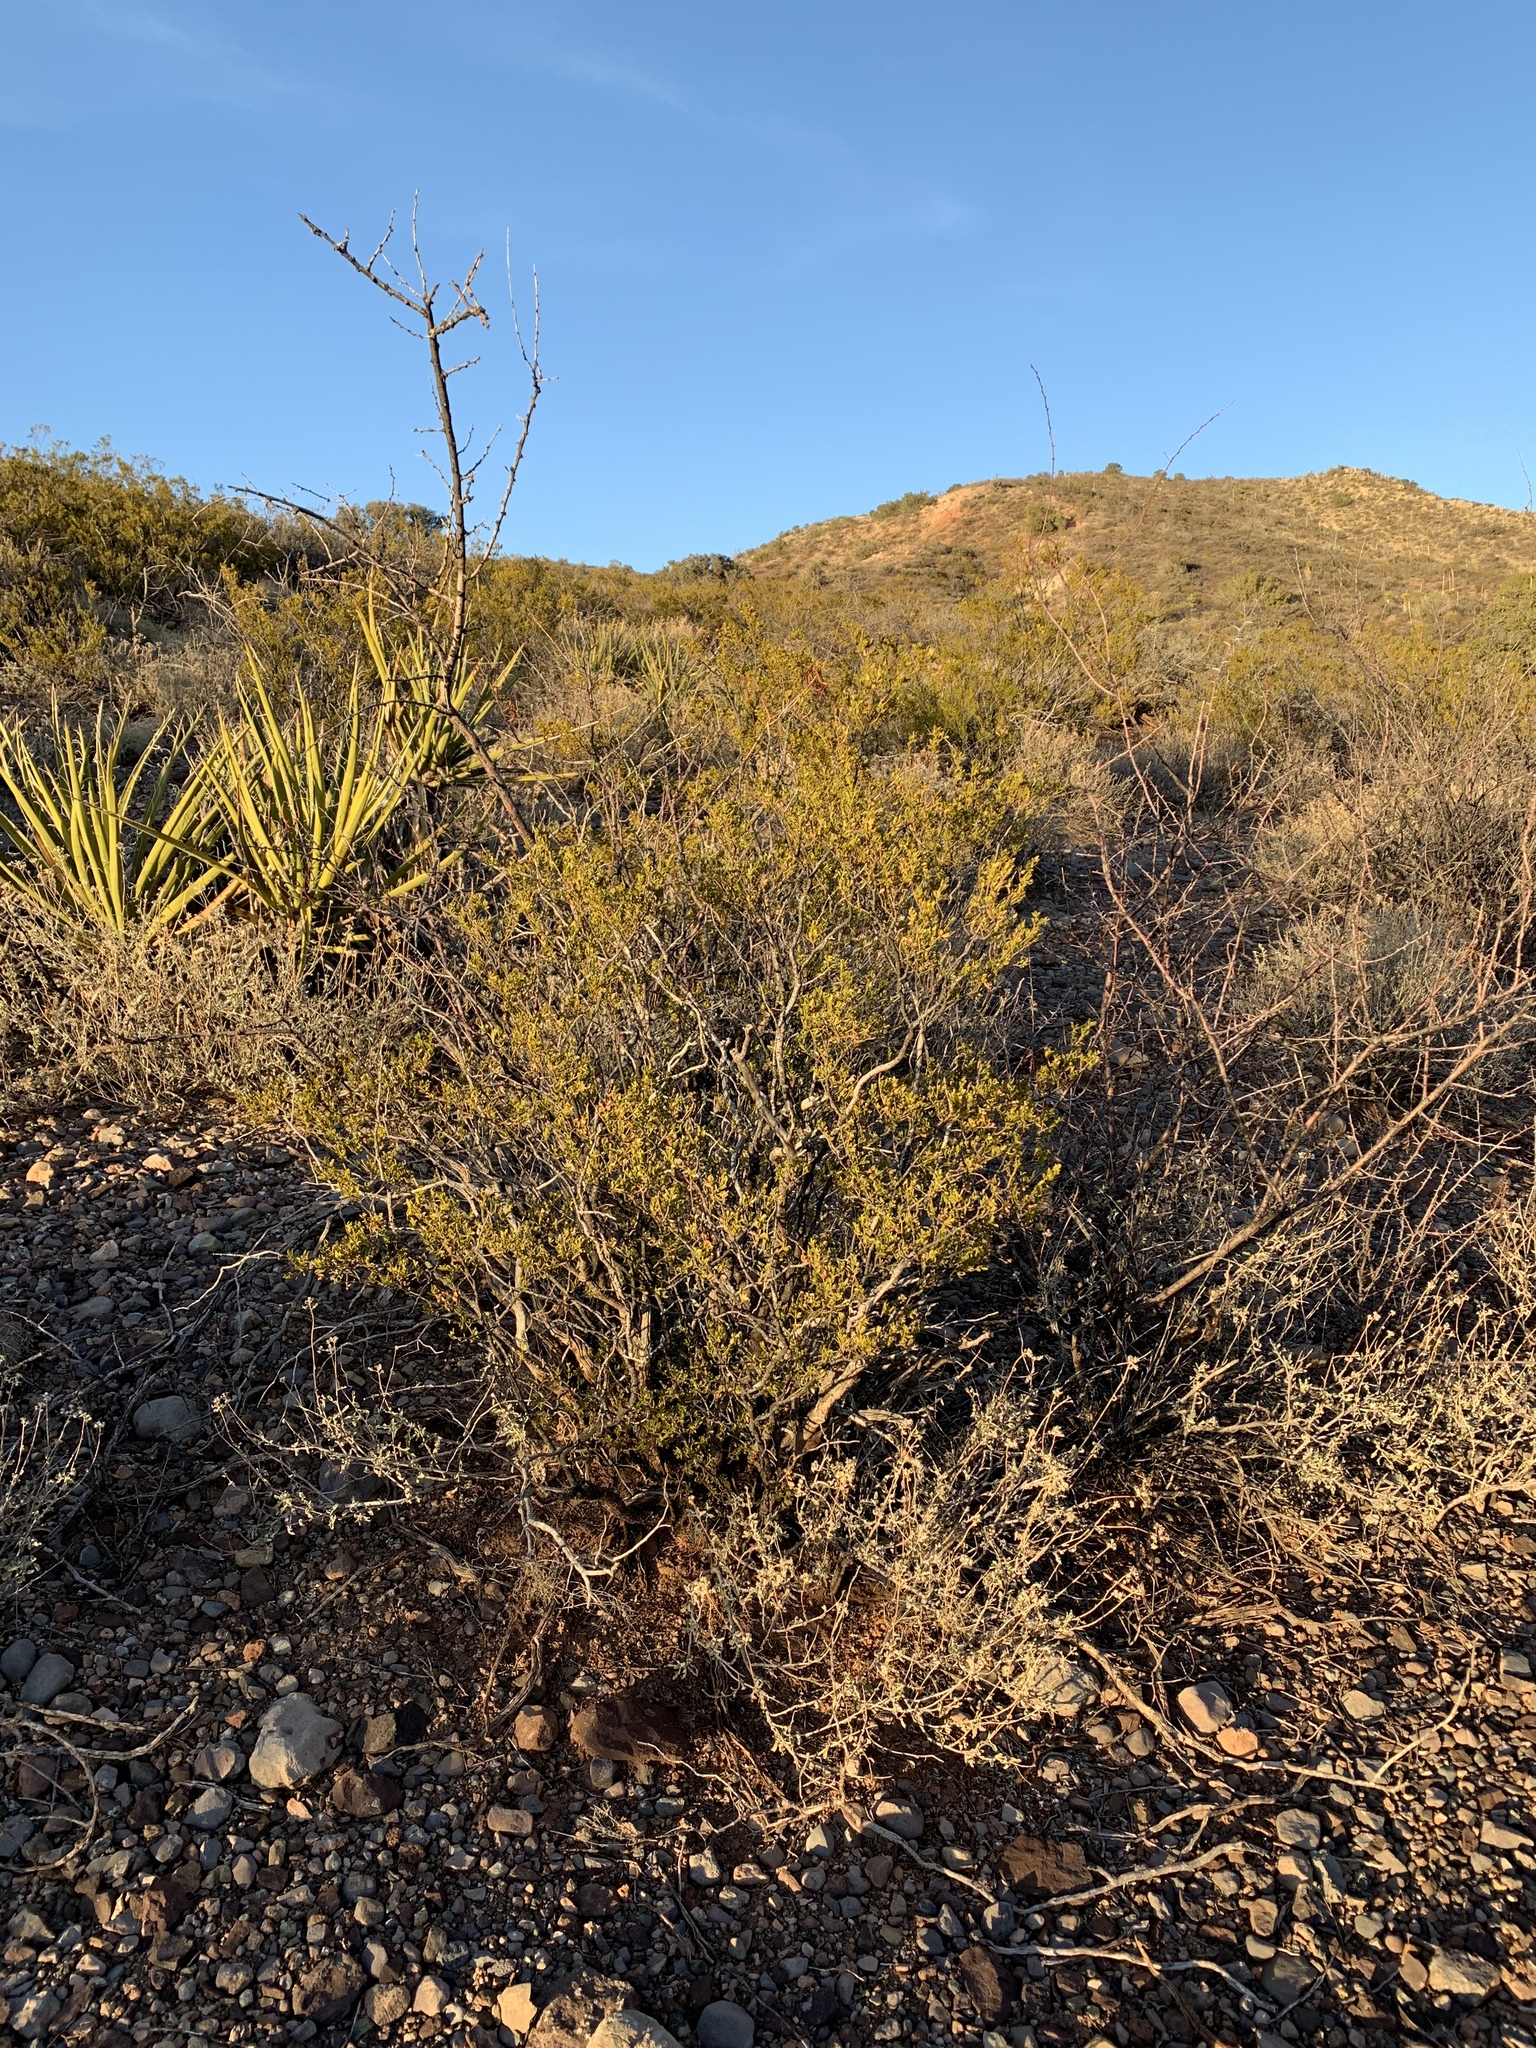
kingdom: Plantae
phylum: Tracheophyta
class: Magnoliopsida
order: Zygophyllales
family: Zygophyllaceae
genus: Larrea
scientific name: Larrea tridentata
